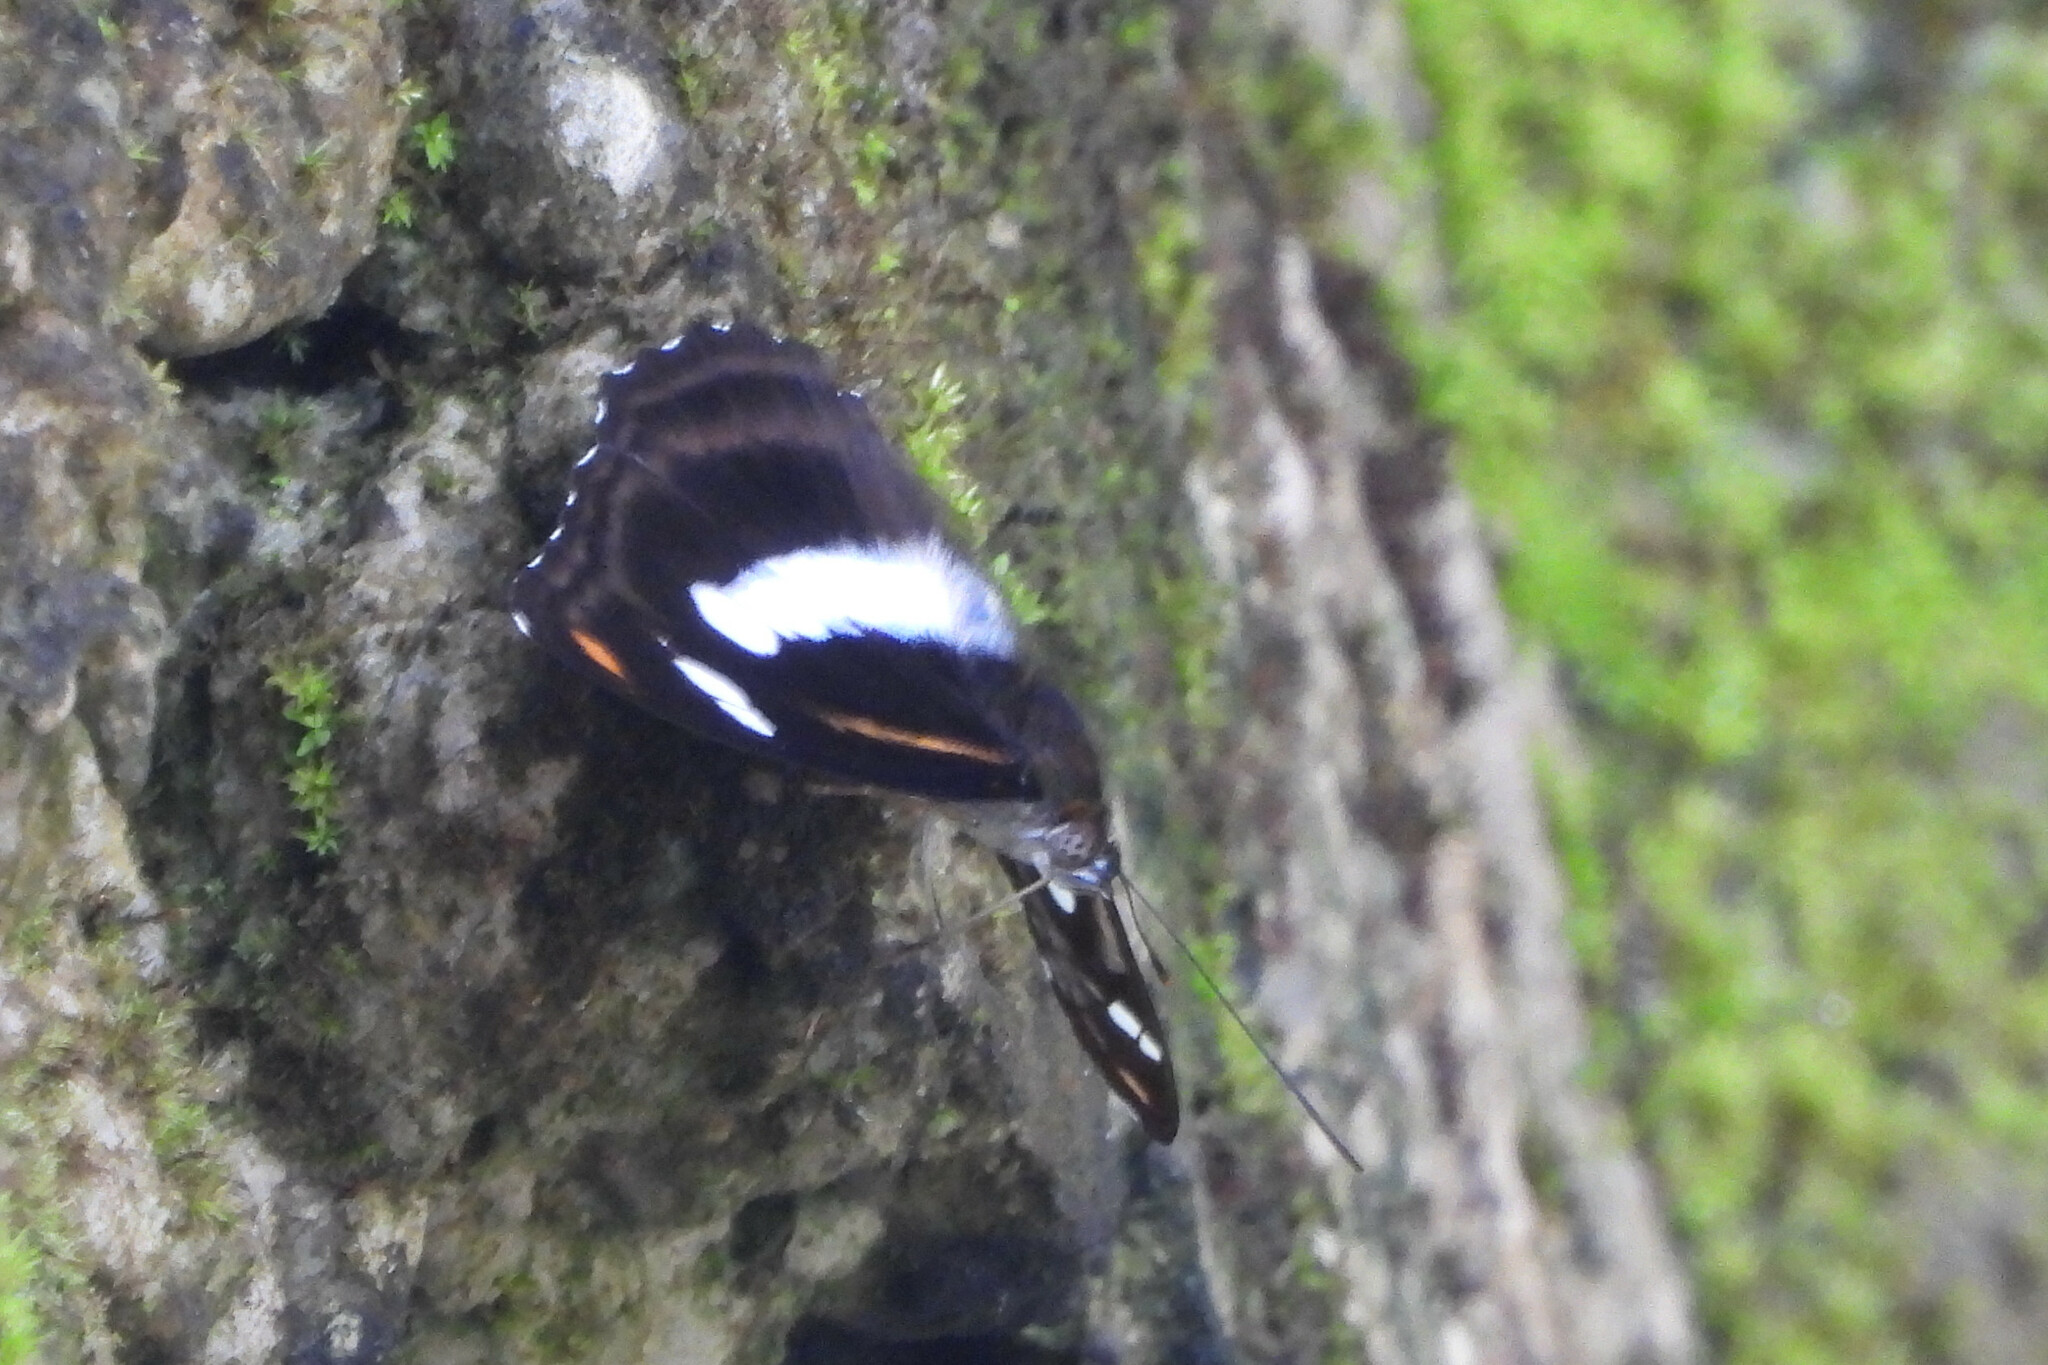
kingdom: Animalia
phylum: Arthropoda
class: Insecta
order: Lepidoptera
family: Nymphalidae
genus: Pantoporia
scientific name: Pantoporia cama
